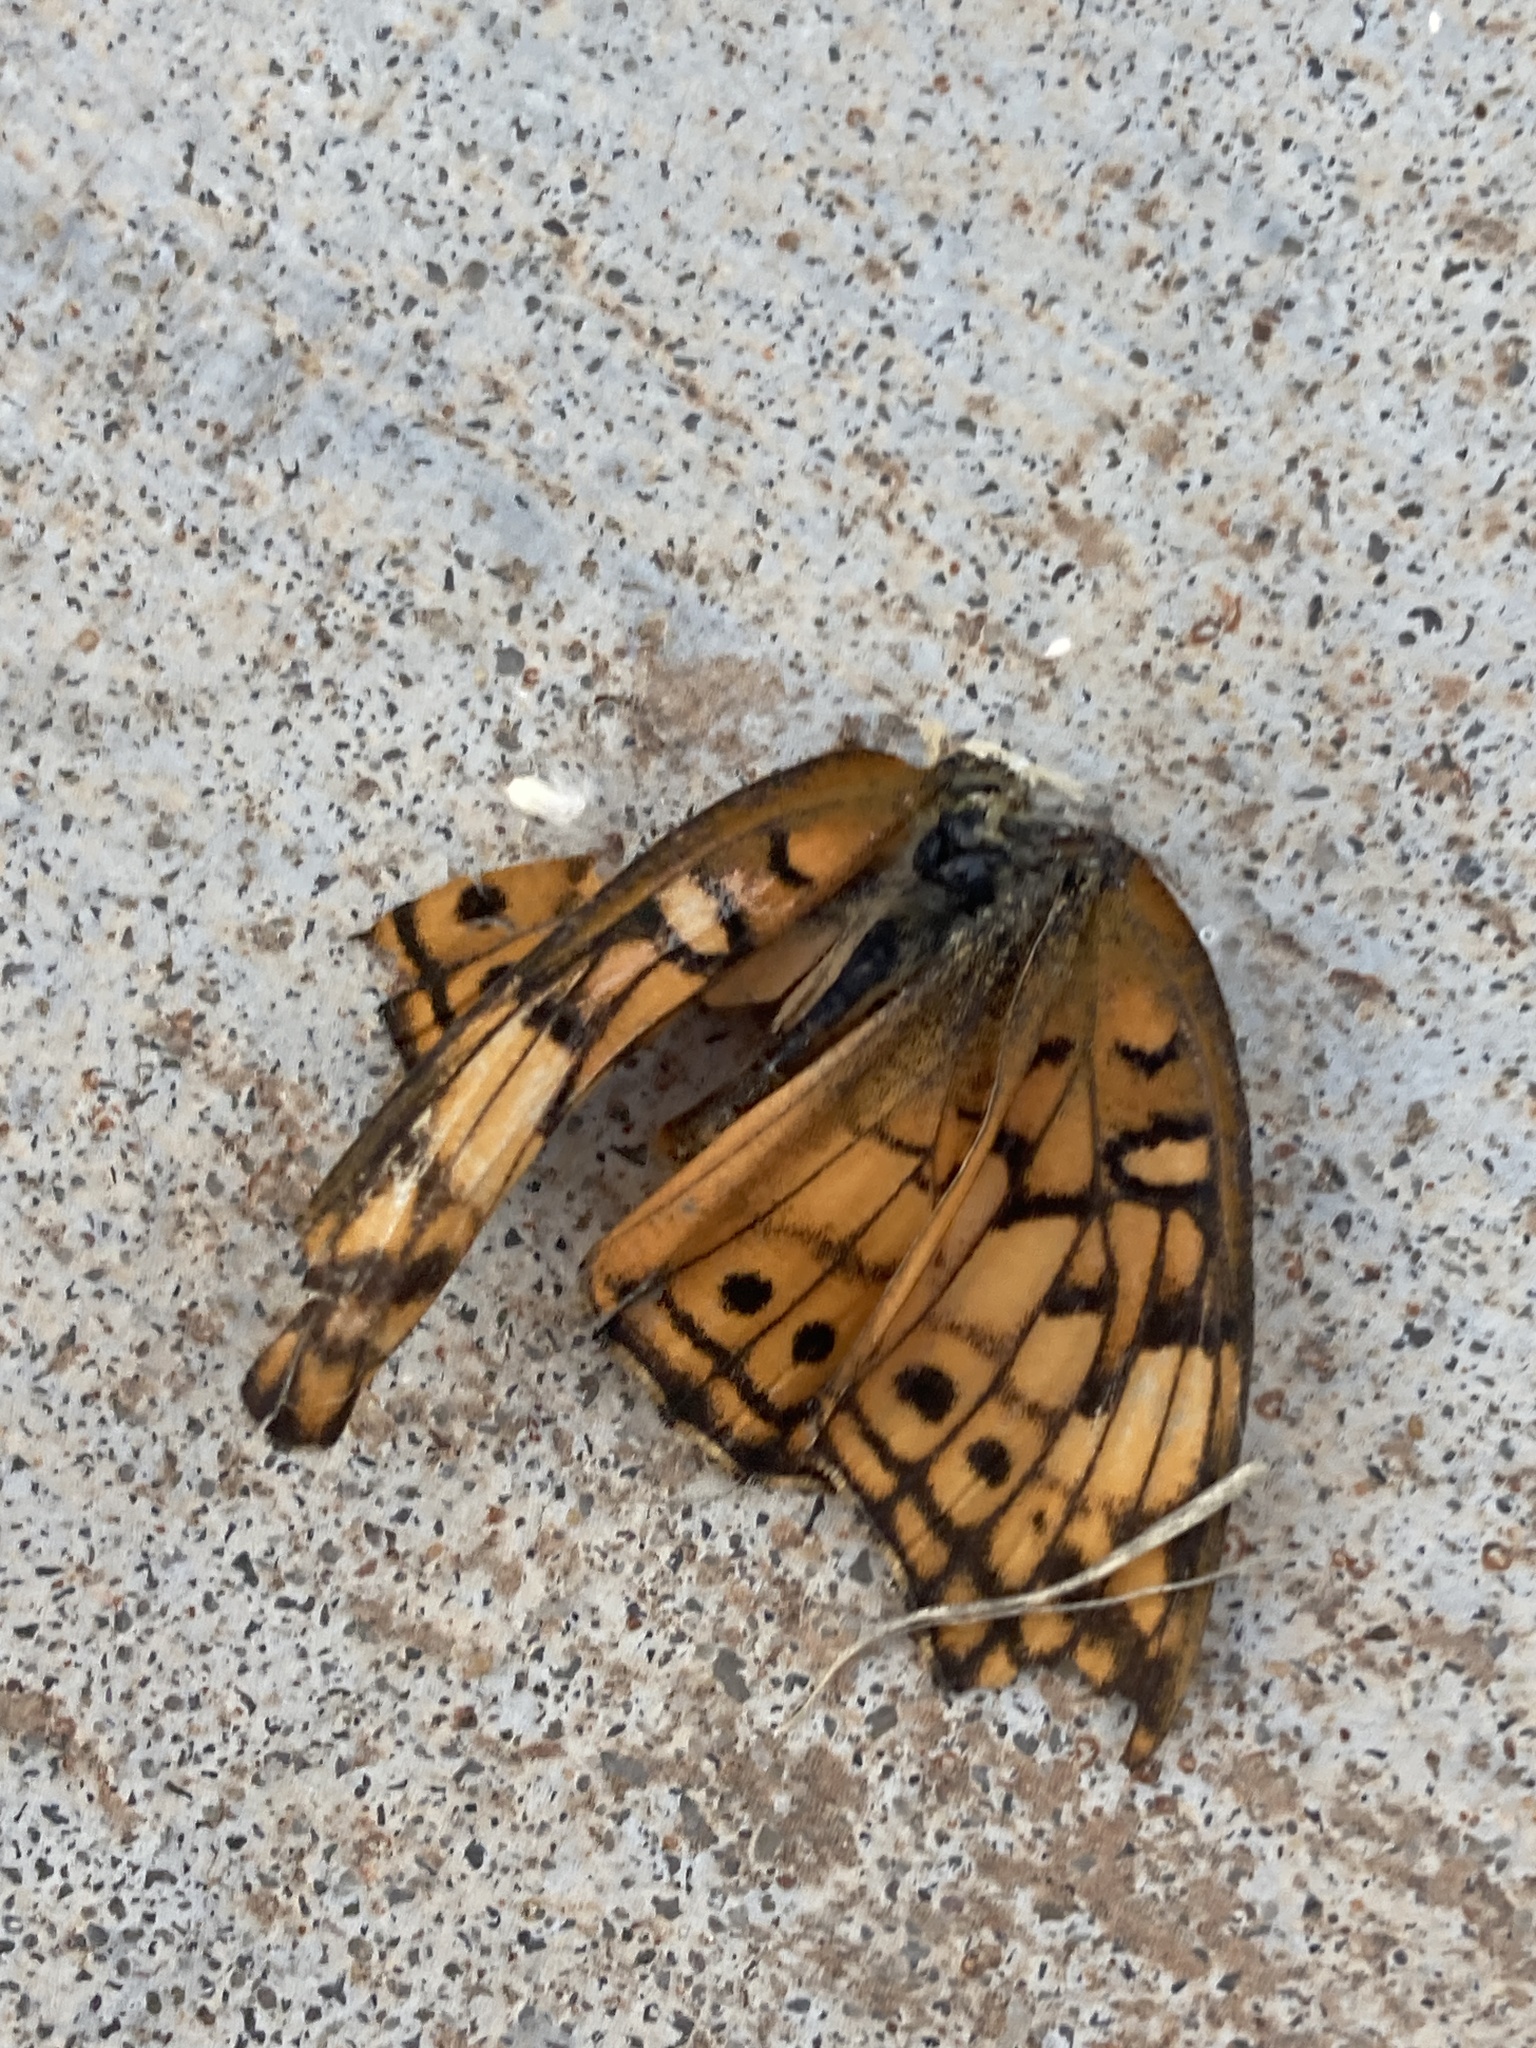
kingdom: Animalia
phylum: Arthropoda
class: Insecta
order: Lepidoptera
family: Nymphalidae
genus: Euptoieta
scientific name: Euptoieta claudia
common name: Variegated fritillary
